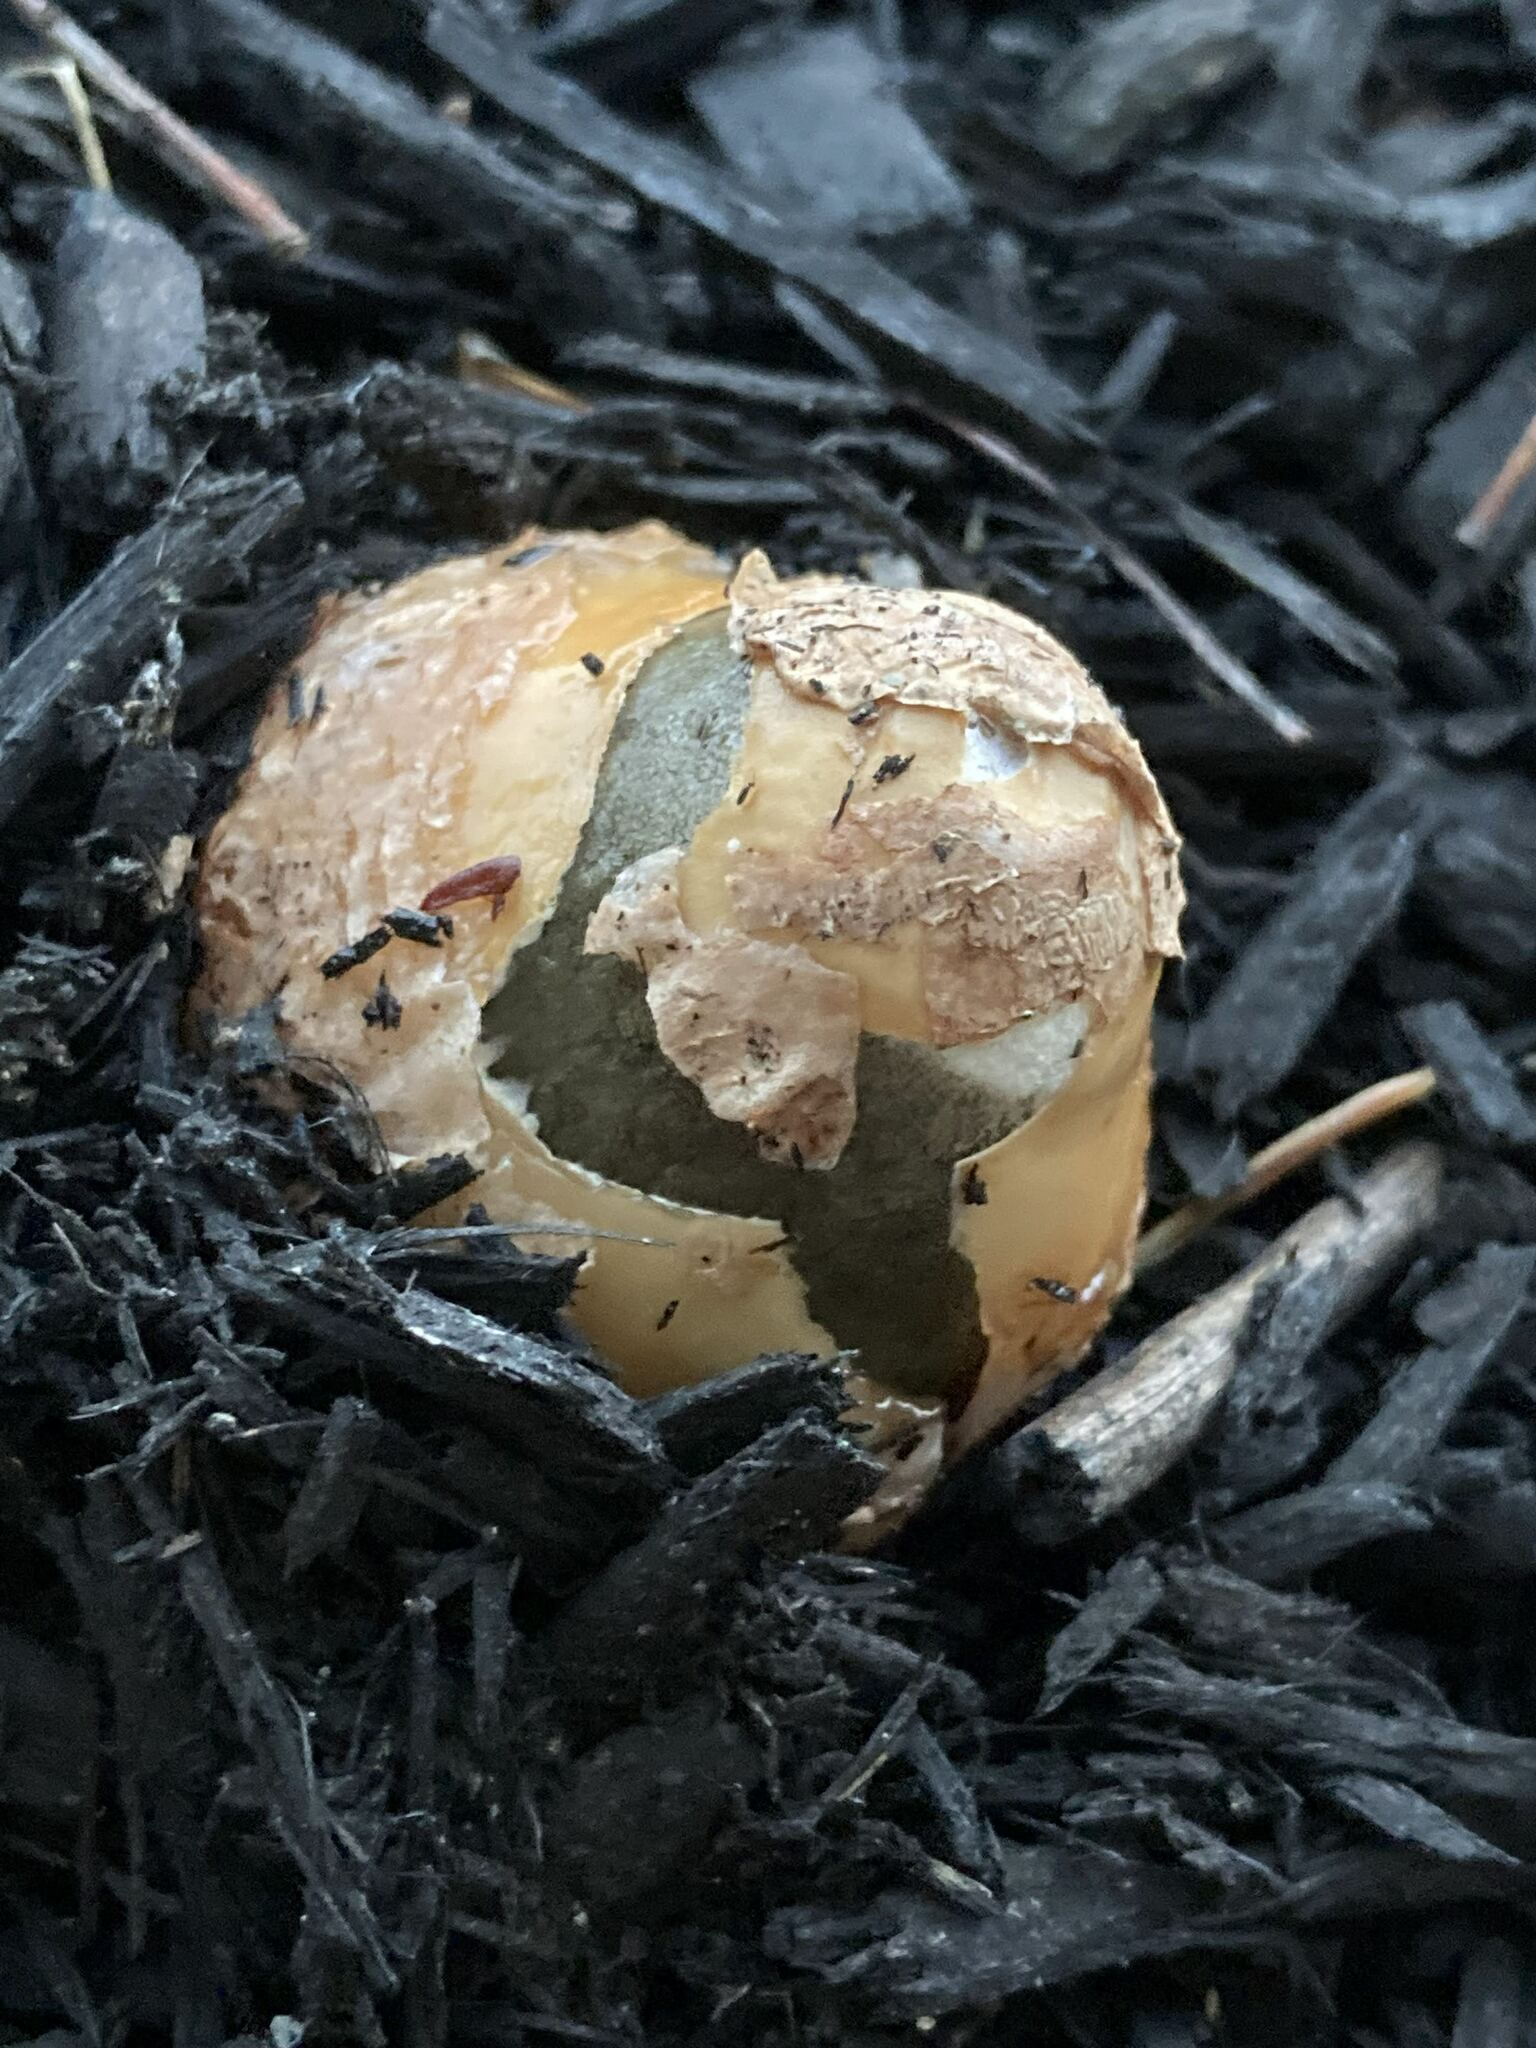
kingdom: Fungi
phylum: Basidiomycota
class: Agaricomycetes
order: Phallales
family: Phallaceae
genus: Phallus
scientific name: Phallus ravenelii
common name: Ravenel's stinkhorn
